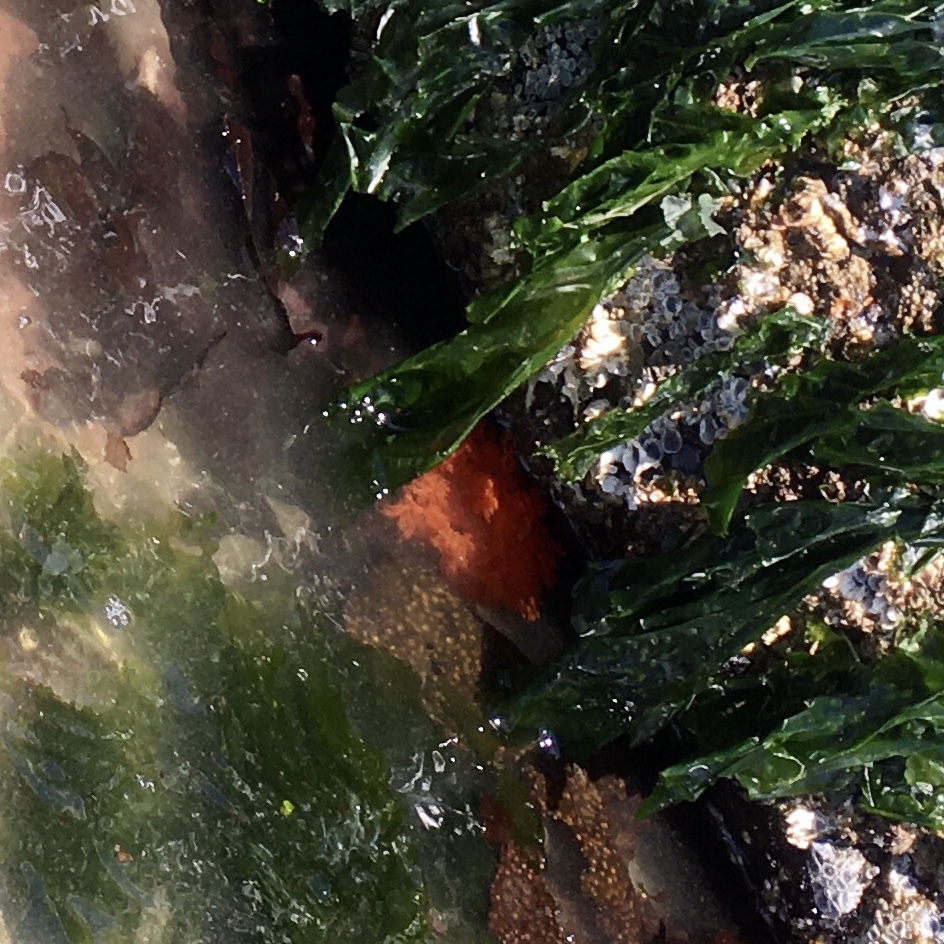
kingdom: Animalia
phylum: Echinodermata
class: Holothuroidea
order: Dendrochirotida
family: Cucumariidae
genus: Cucumaria
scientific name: Cucumaria miniata
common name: Orange sea cucumber
